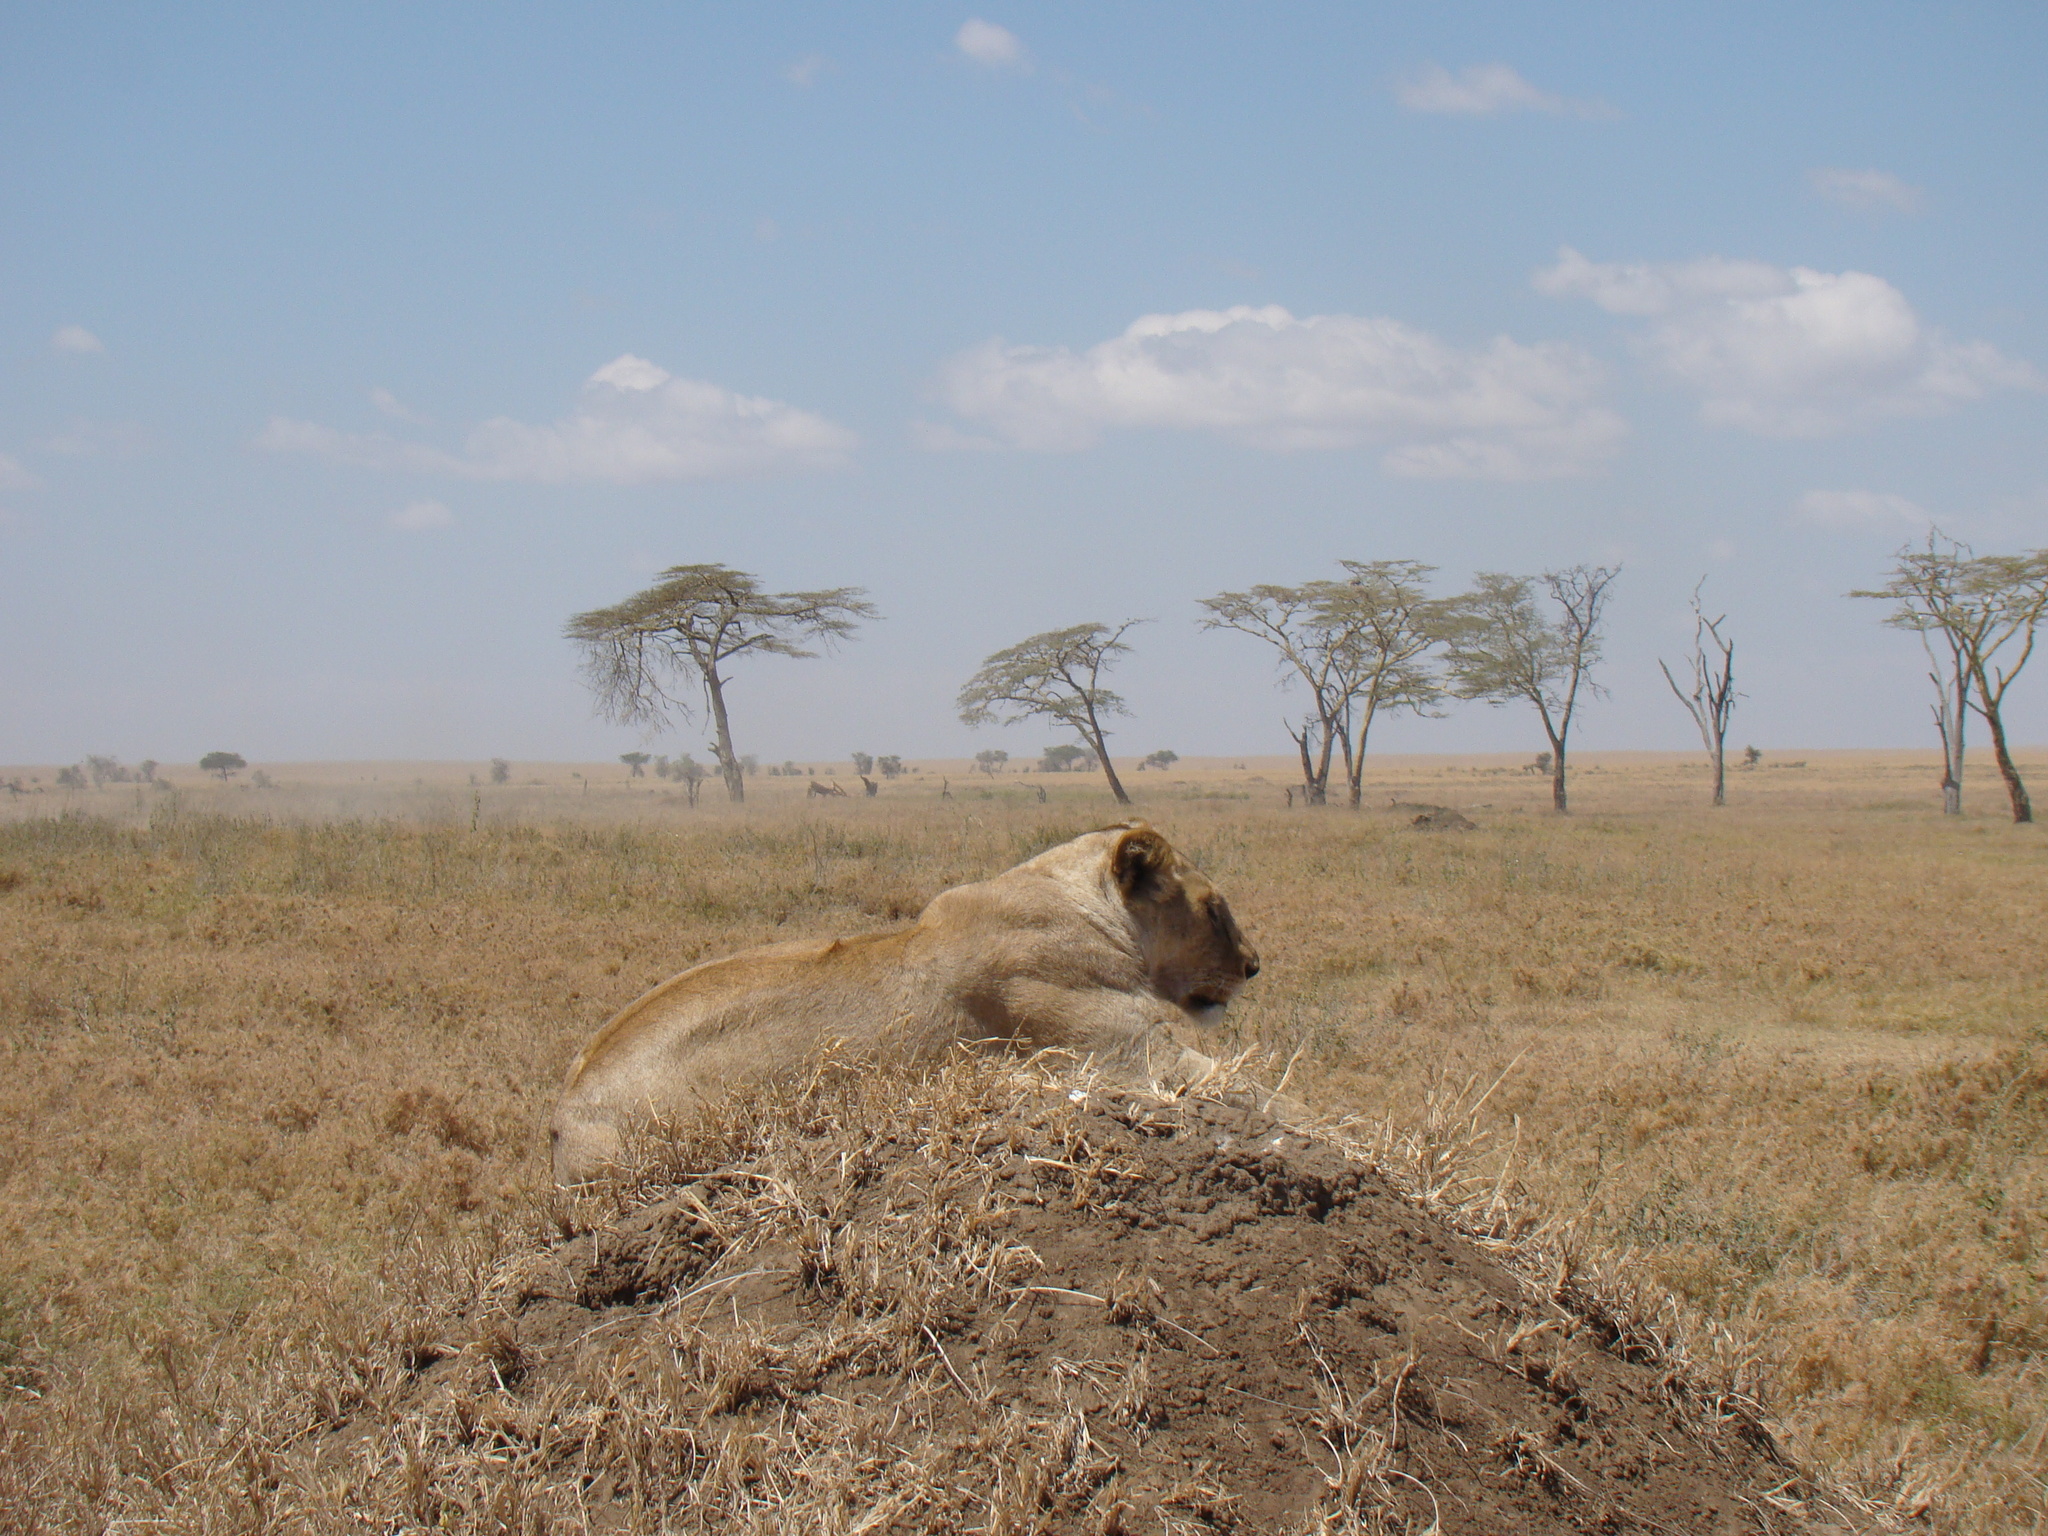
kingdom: Animalia
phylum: Chordata
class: Mammalia
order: Carnivora
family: Felidae
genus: Panthera
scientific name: Panthera leo
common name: Lion
